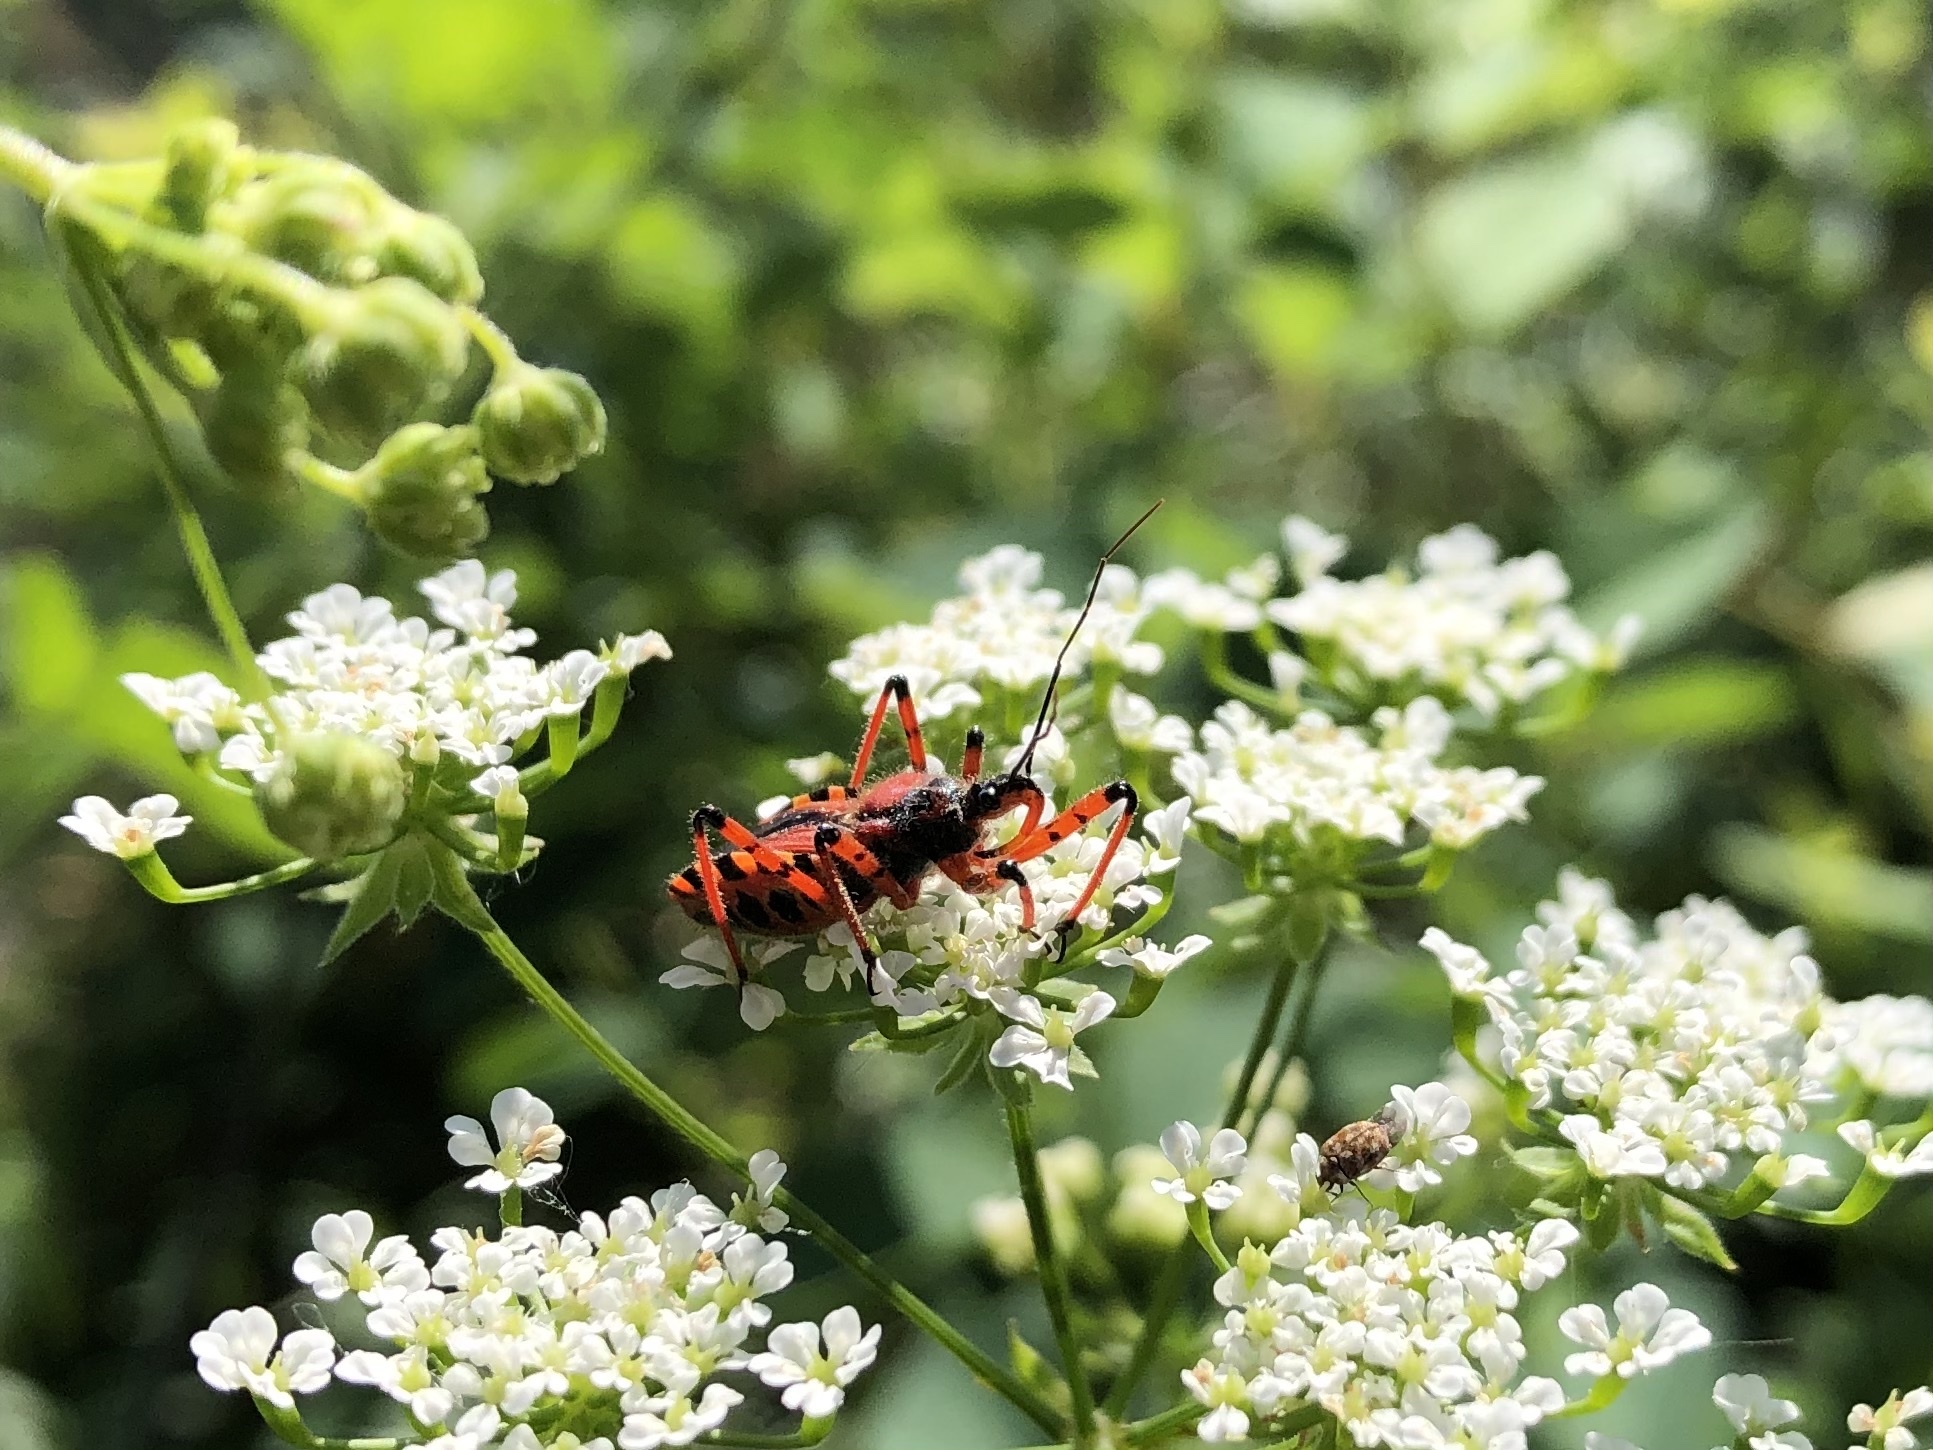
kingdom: Animalia
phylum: Arthropoda
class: Insecta
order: Hemiptera
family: Reduviidae
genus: Rhynocoris
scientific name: Rhynocoris iracundus
